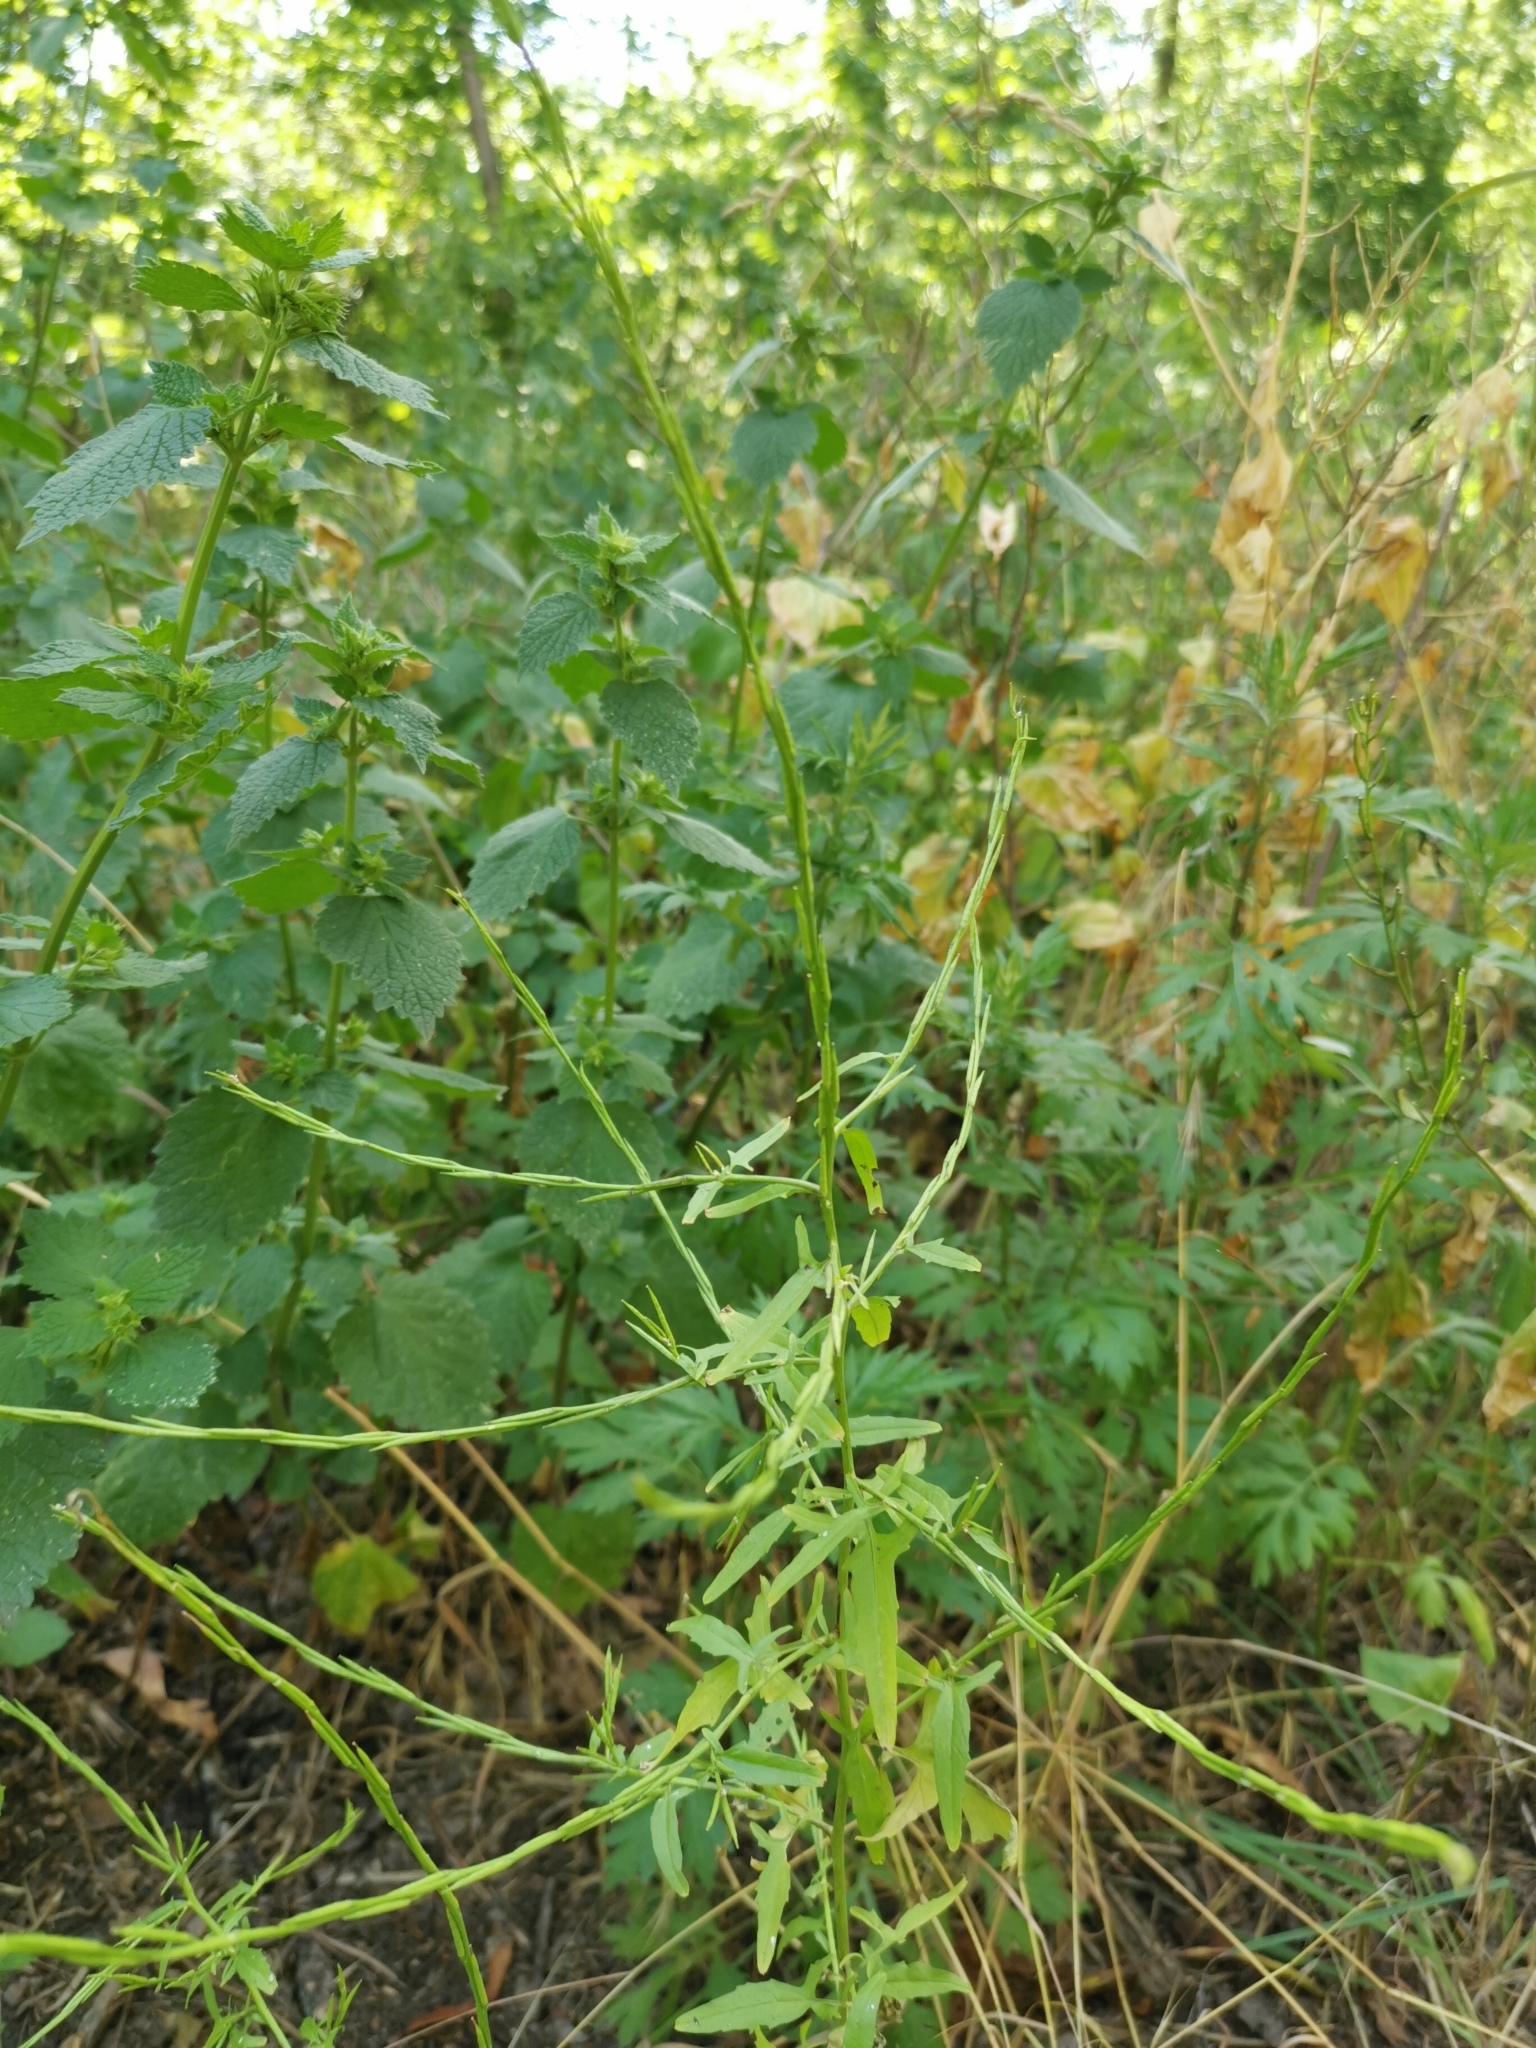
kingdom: Plantae
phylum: Tracheophyta
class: Magnoliopsida
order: Brassicales
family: Brassicaceae
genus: Sisymbrium
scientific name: Sisymbrium officinale
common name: Hedge mustard
